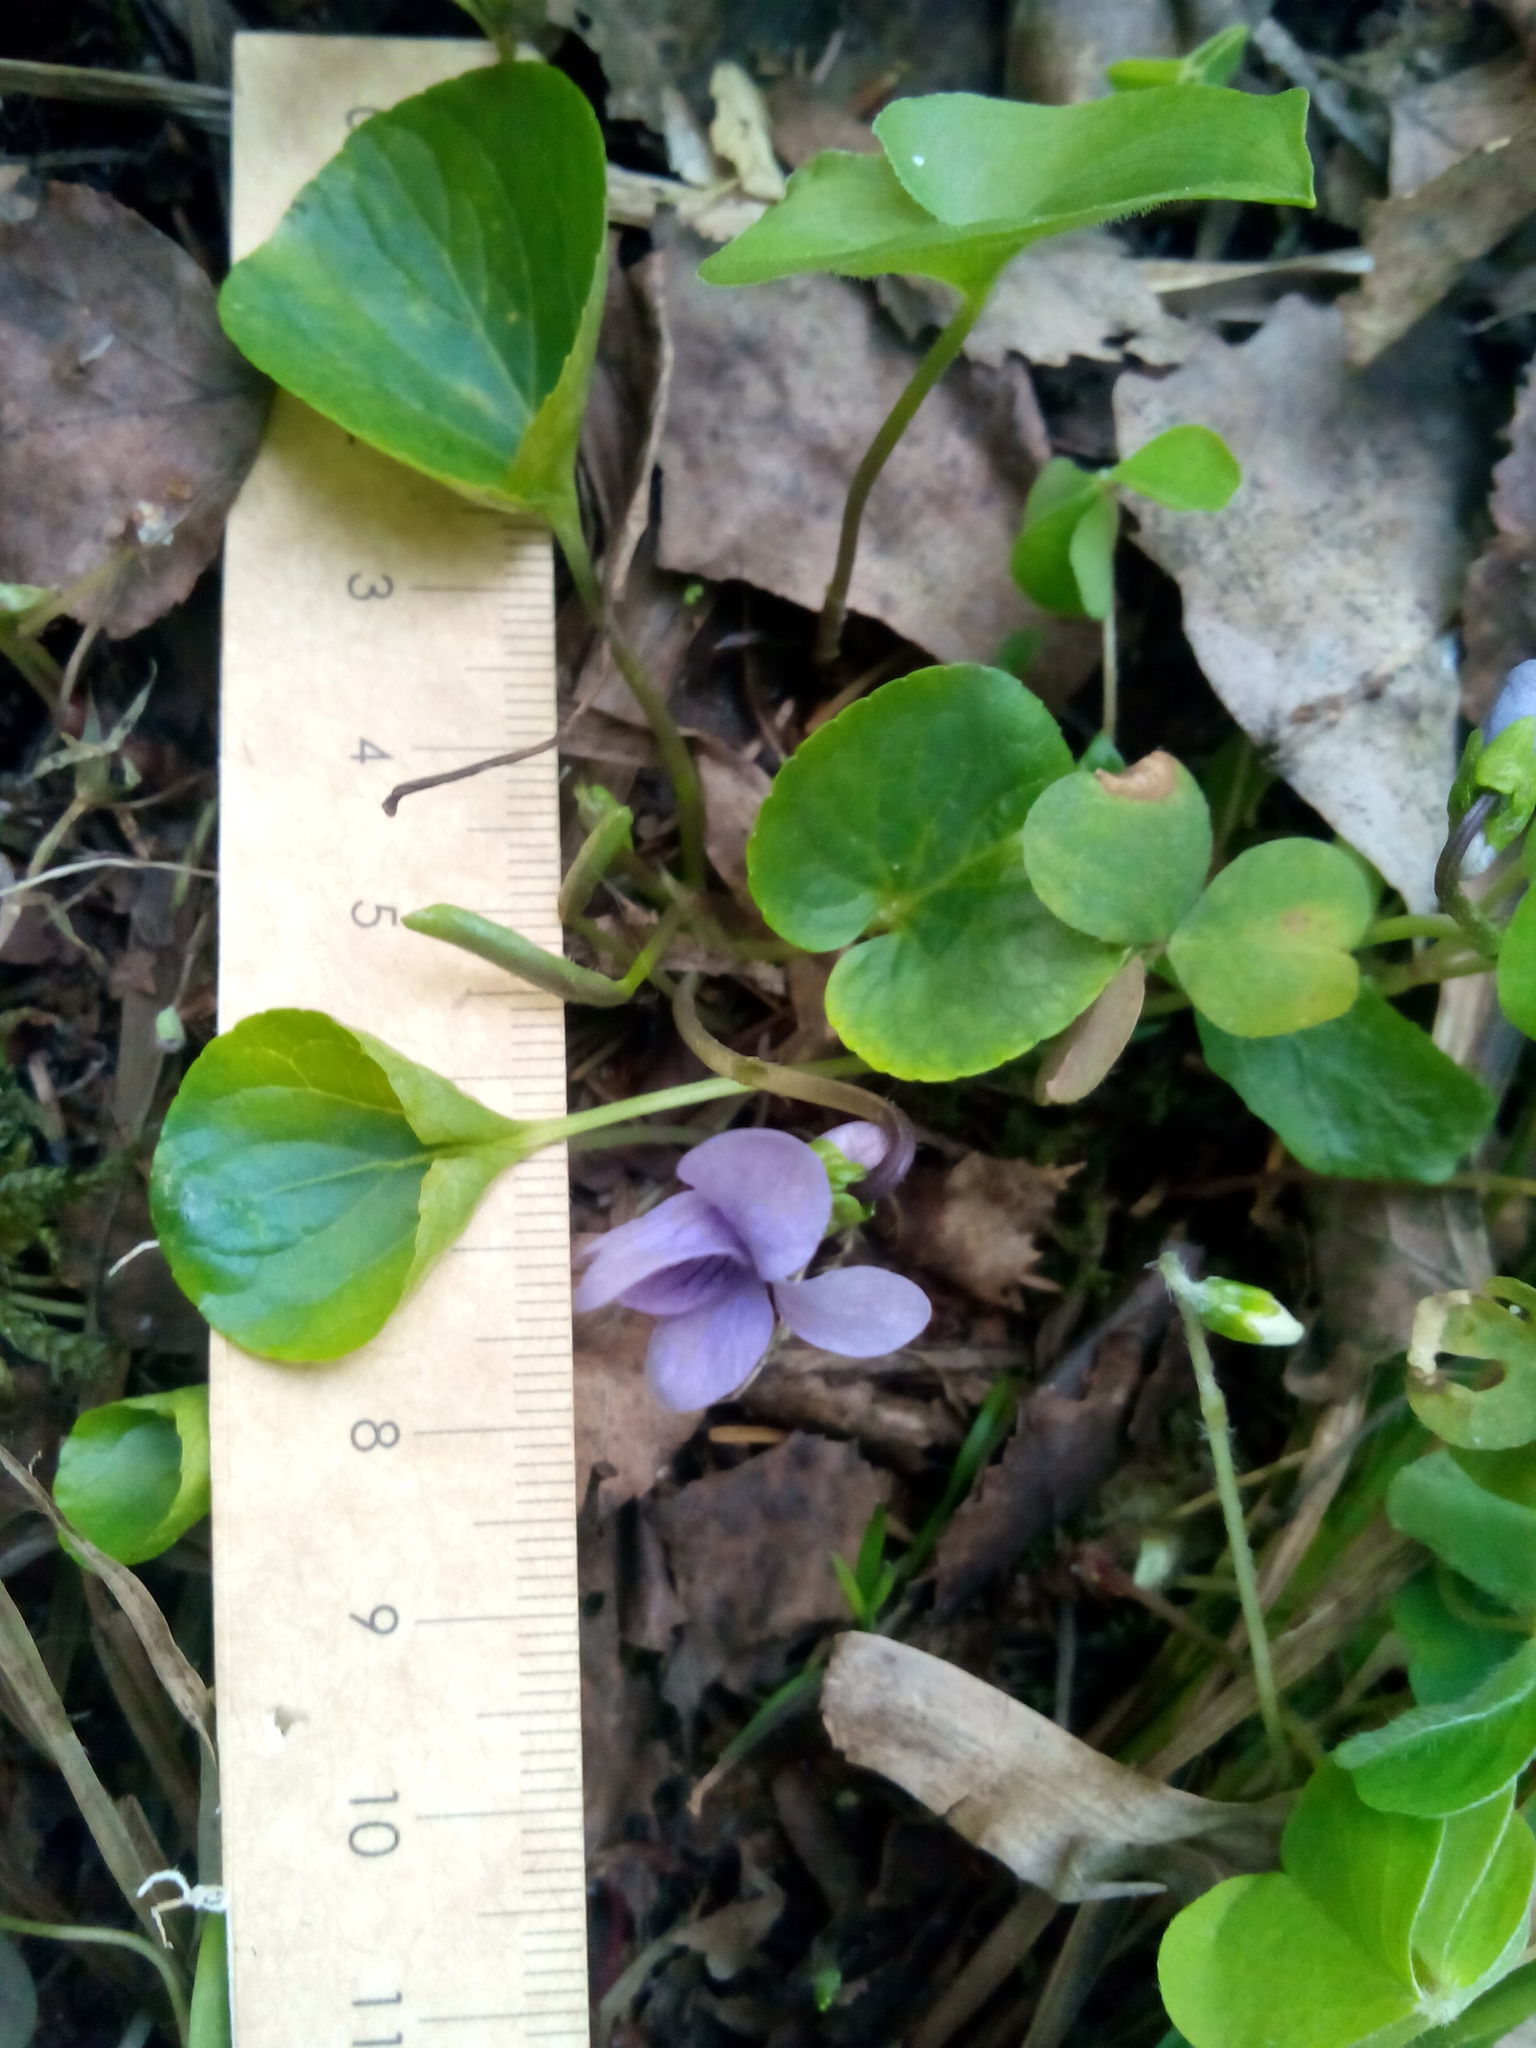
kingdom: Plantae
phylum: Tracheophyta
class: Magnoliopsida
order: Malpighiales
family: Violaceae
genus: Viola
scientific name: Viola epipsila
